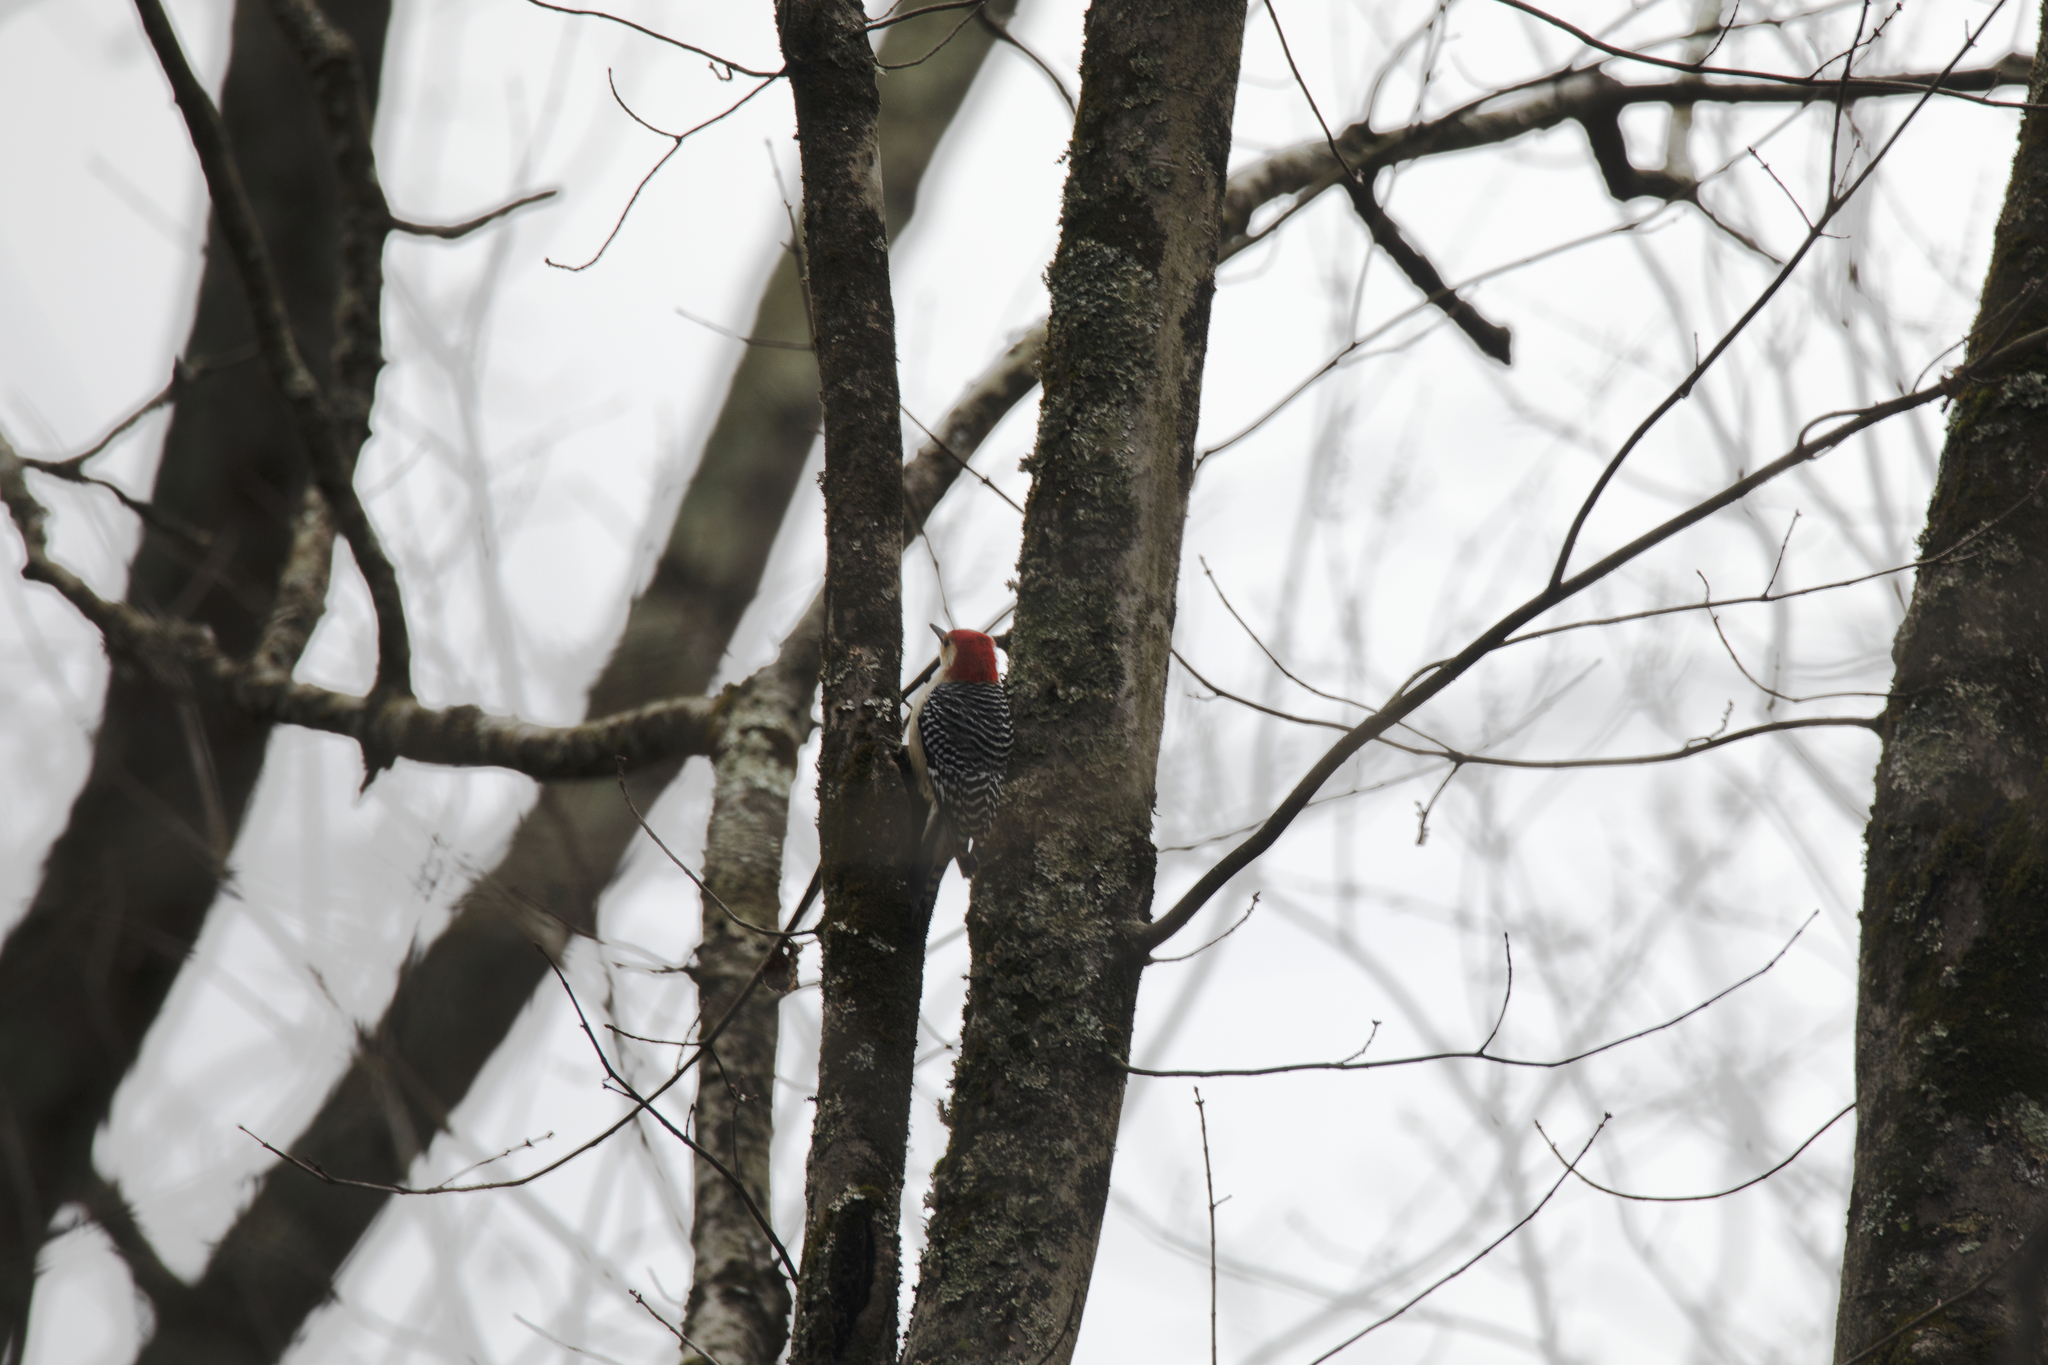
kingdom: Animalia
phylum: Chordata
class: Aves
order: Piciformes
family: Picidae
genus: Melanerpes
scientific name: Melanerpes carolinus
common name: Red-bellied woodpecker
